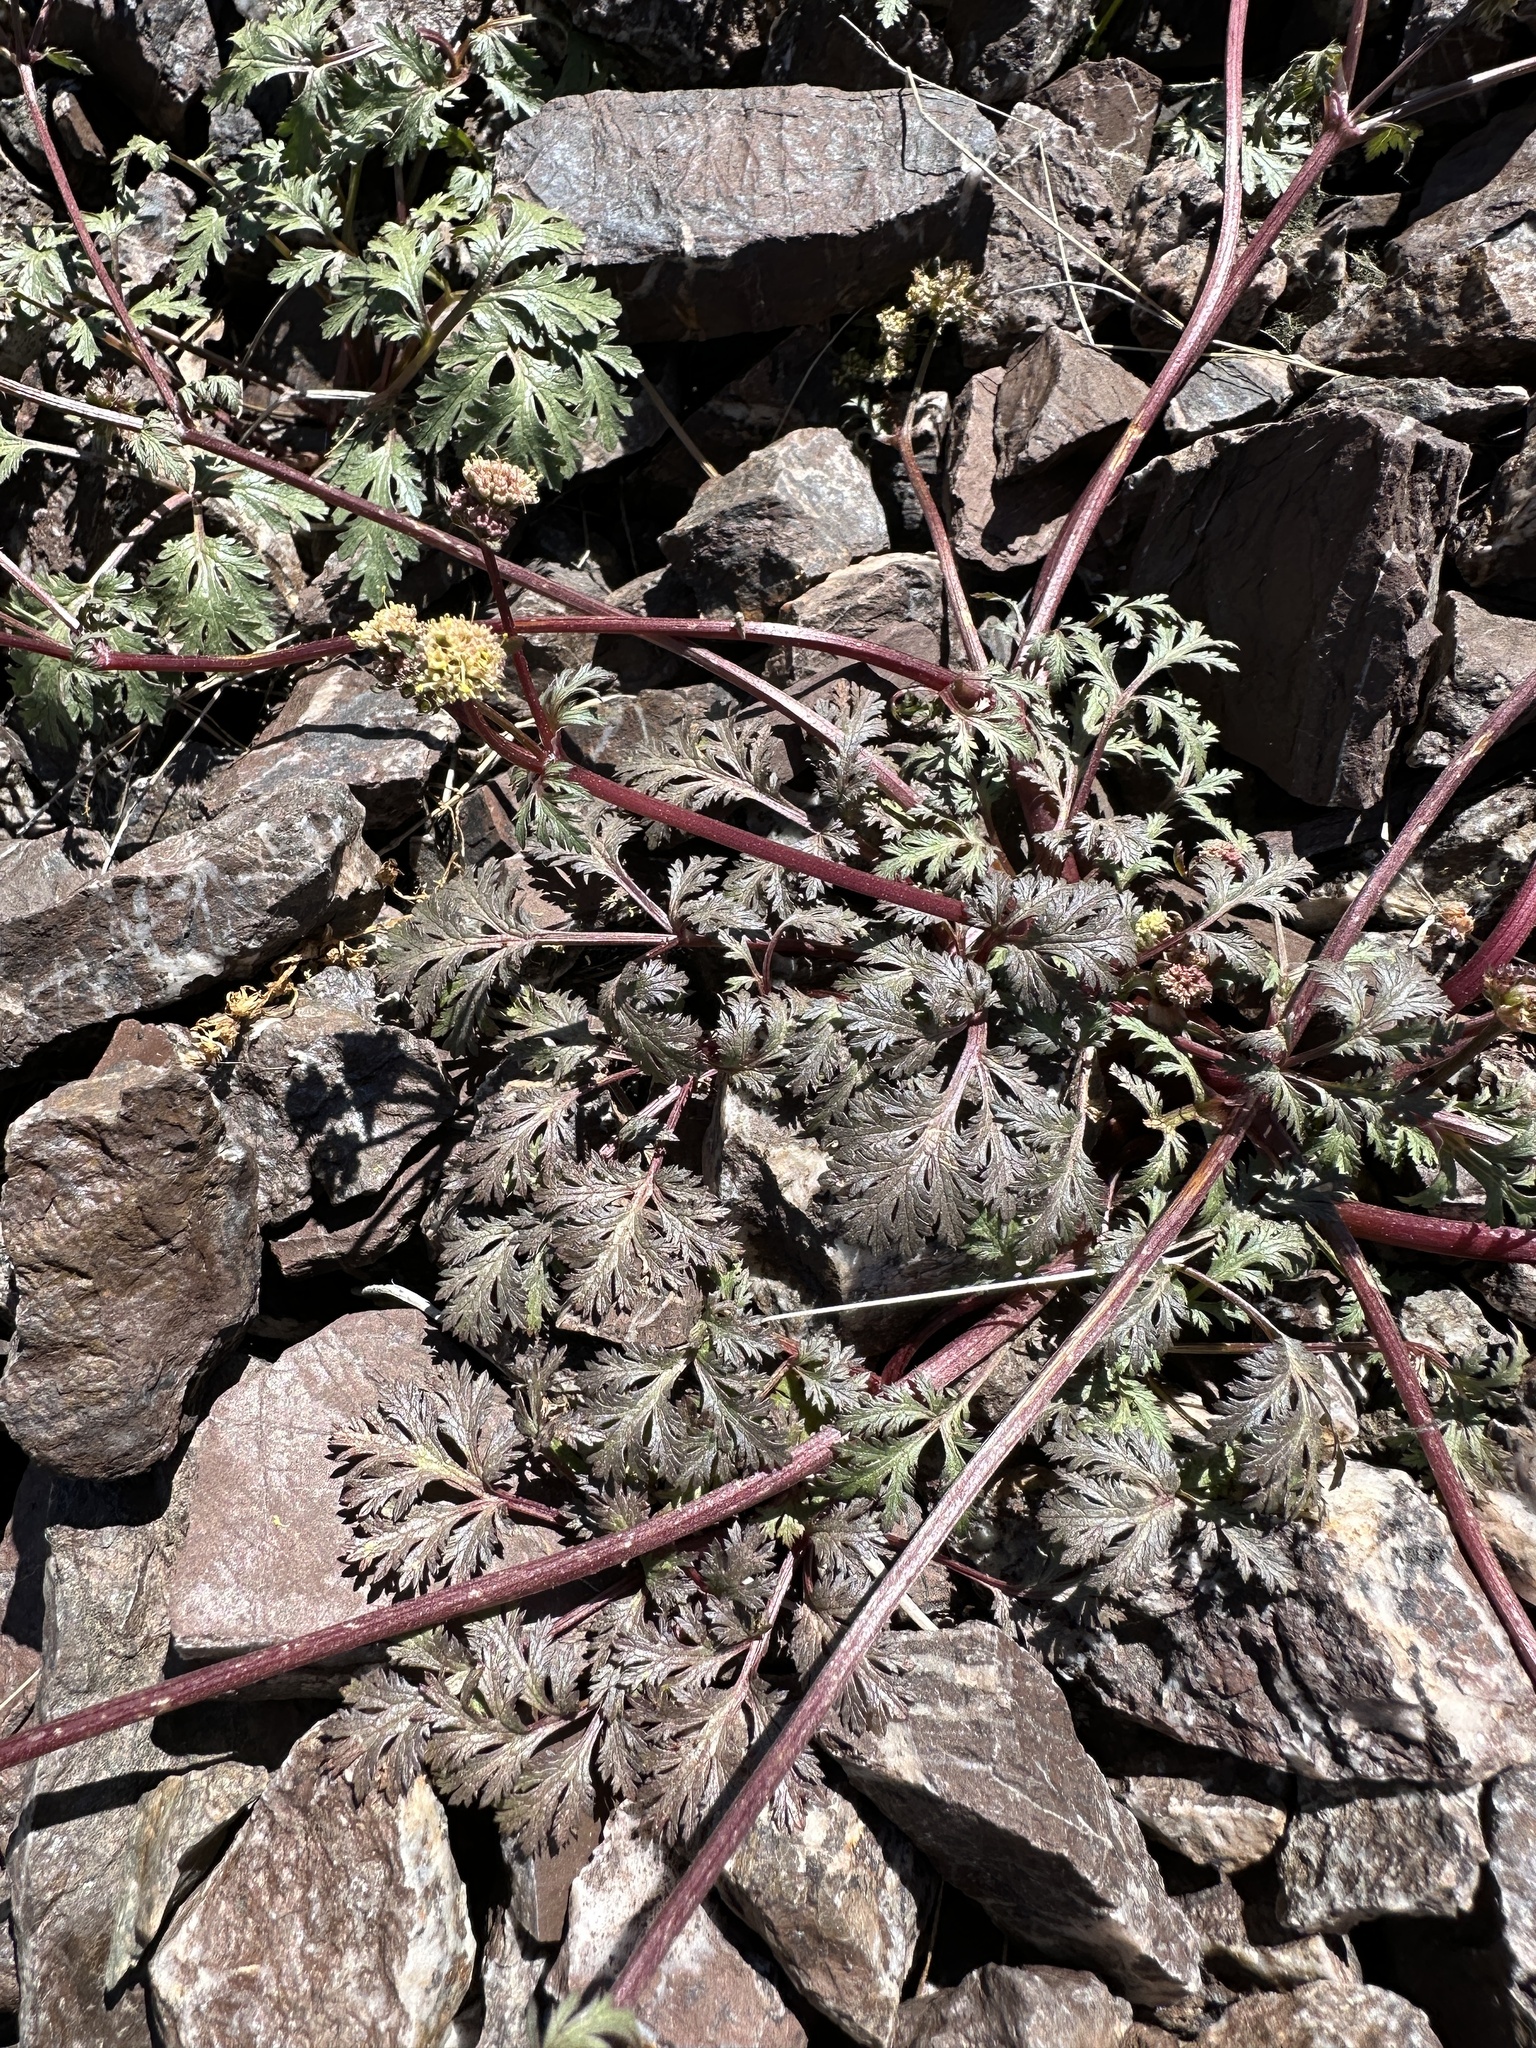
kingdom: Plantae
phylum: Tracheophyta
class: Magnoliopsida
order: Apiales
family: Apiaceae
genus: Sanicula
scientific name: Sanicula saxatilis
